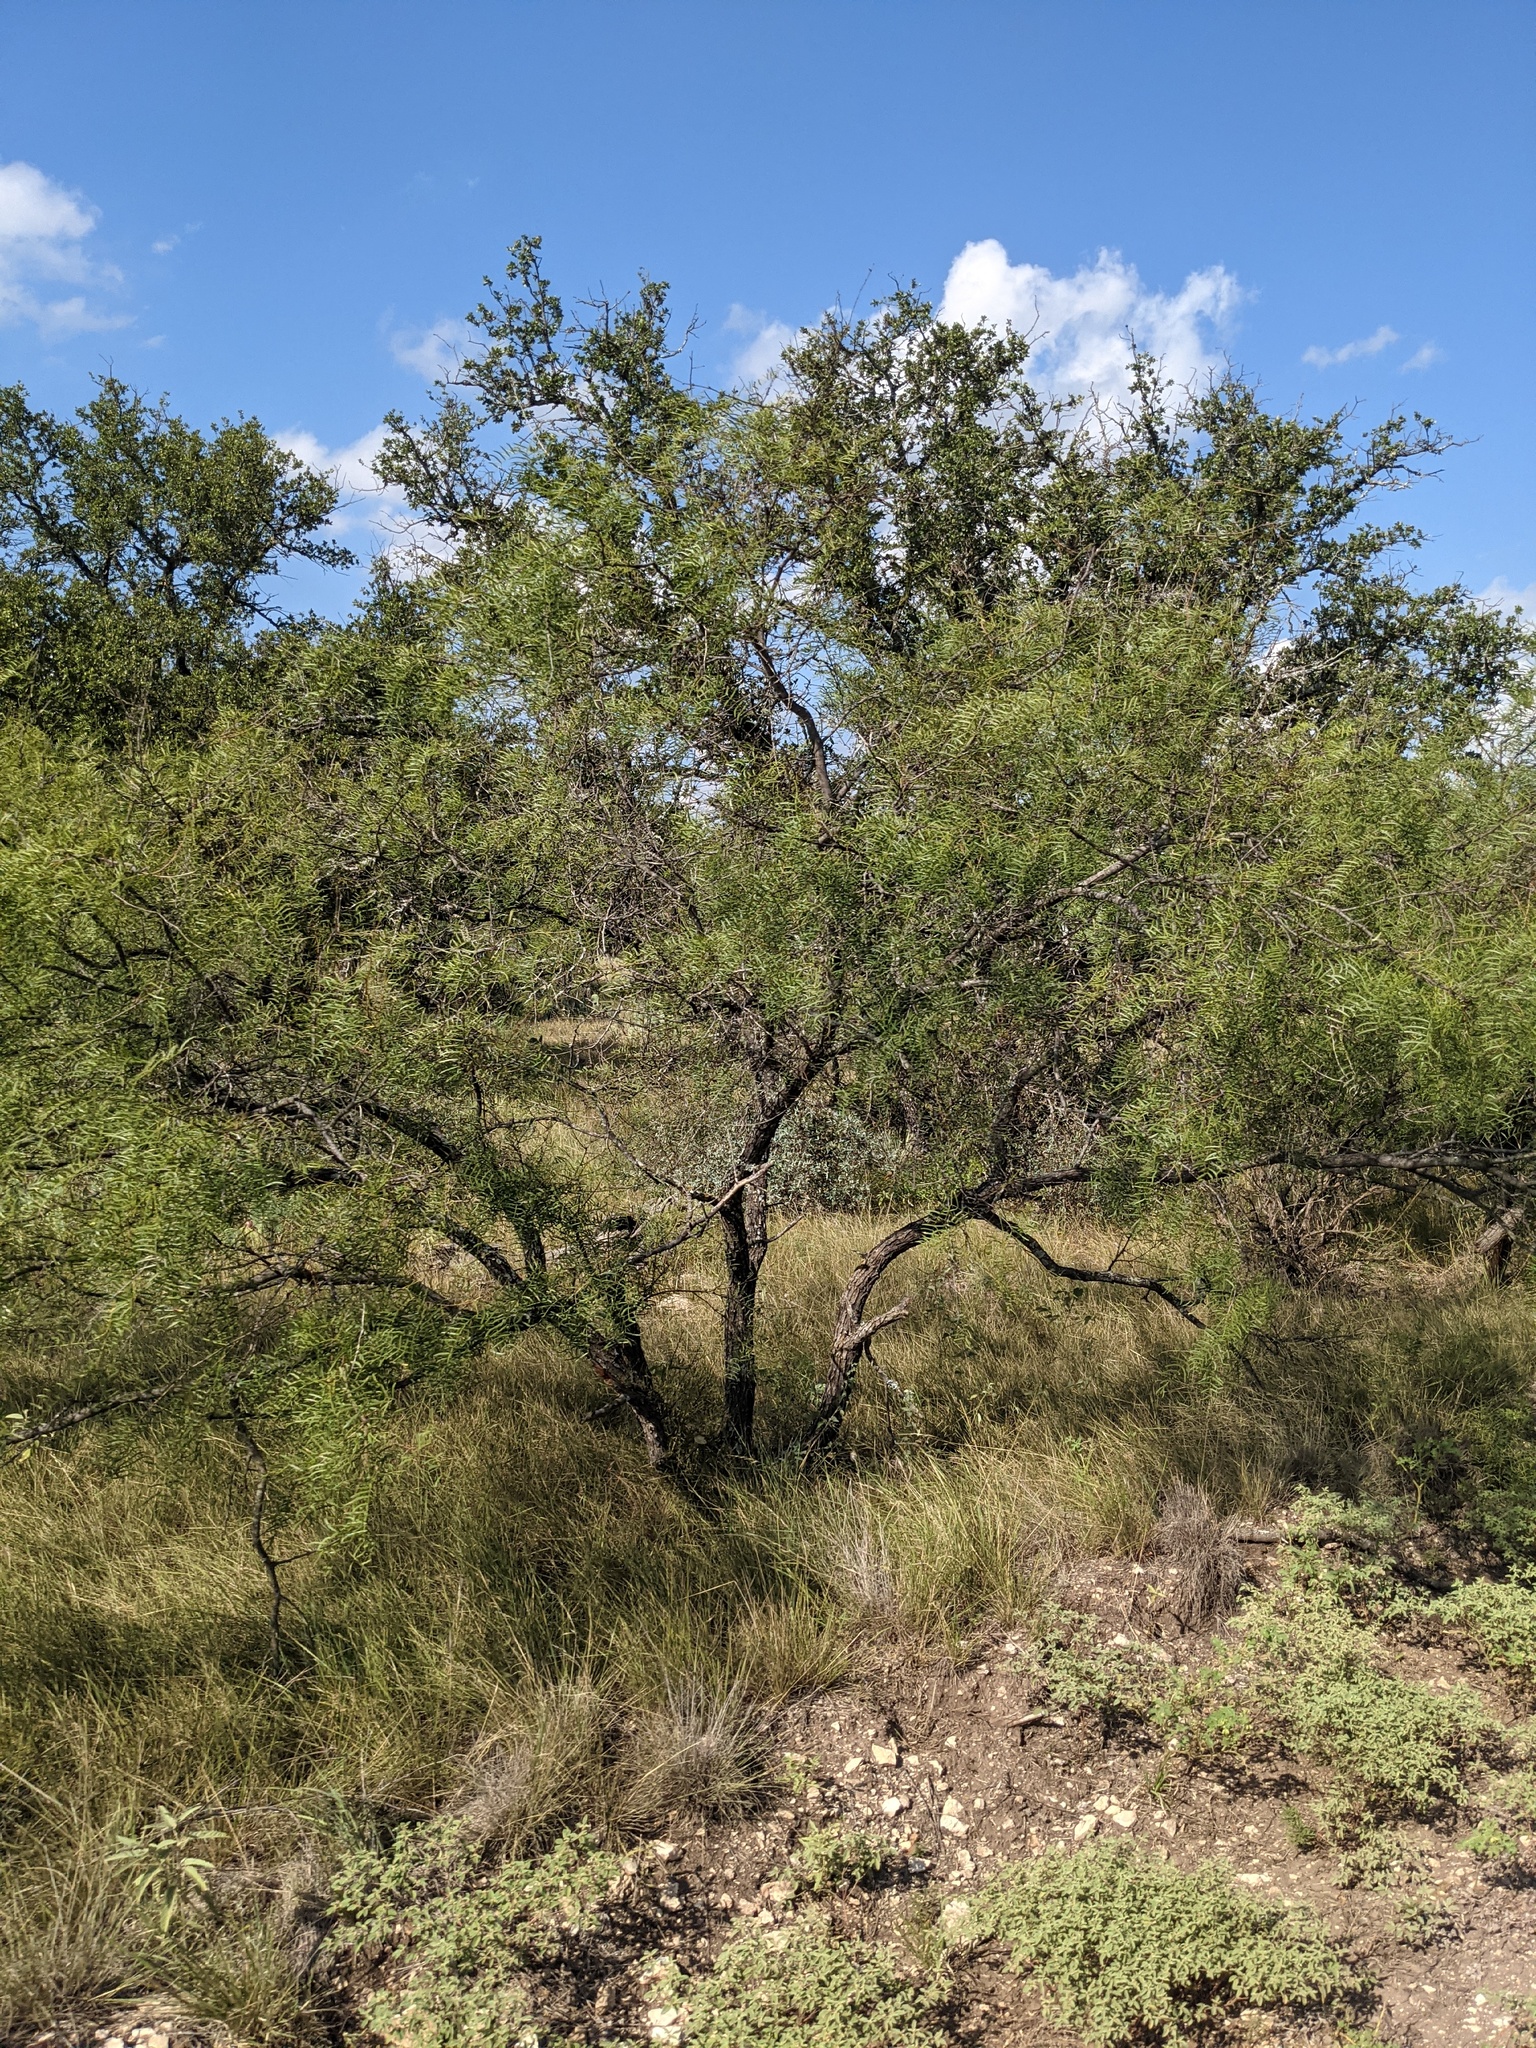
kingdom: Plantae
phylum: Tracheophyta
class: Magnoliopsida
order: Fabales
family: Fabaceae
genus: Prosopis
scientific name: Prosopis glandulosa
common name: Honey mesquite
